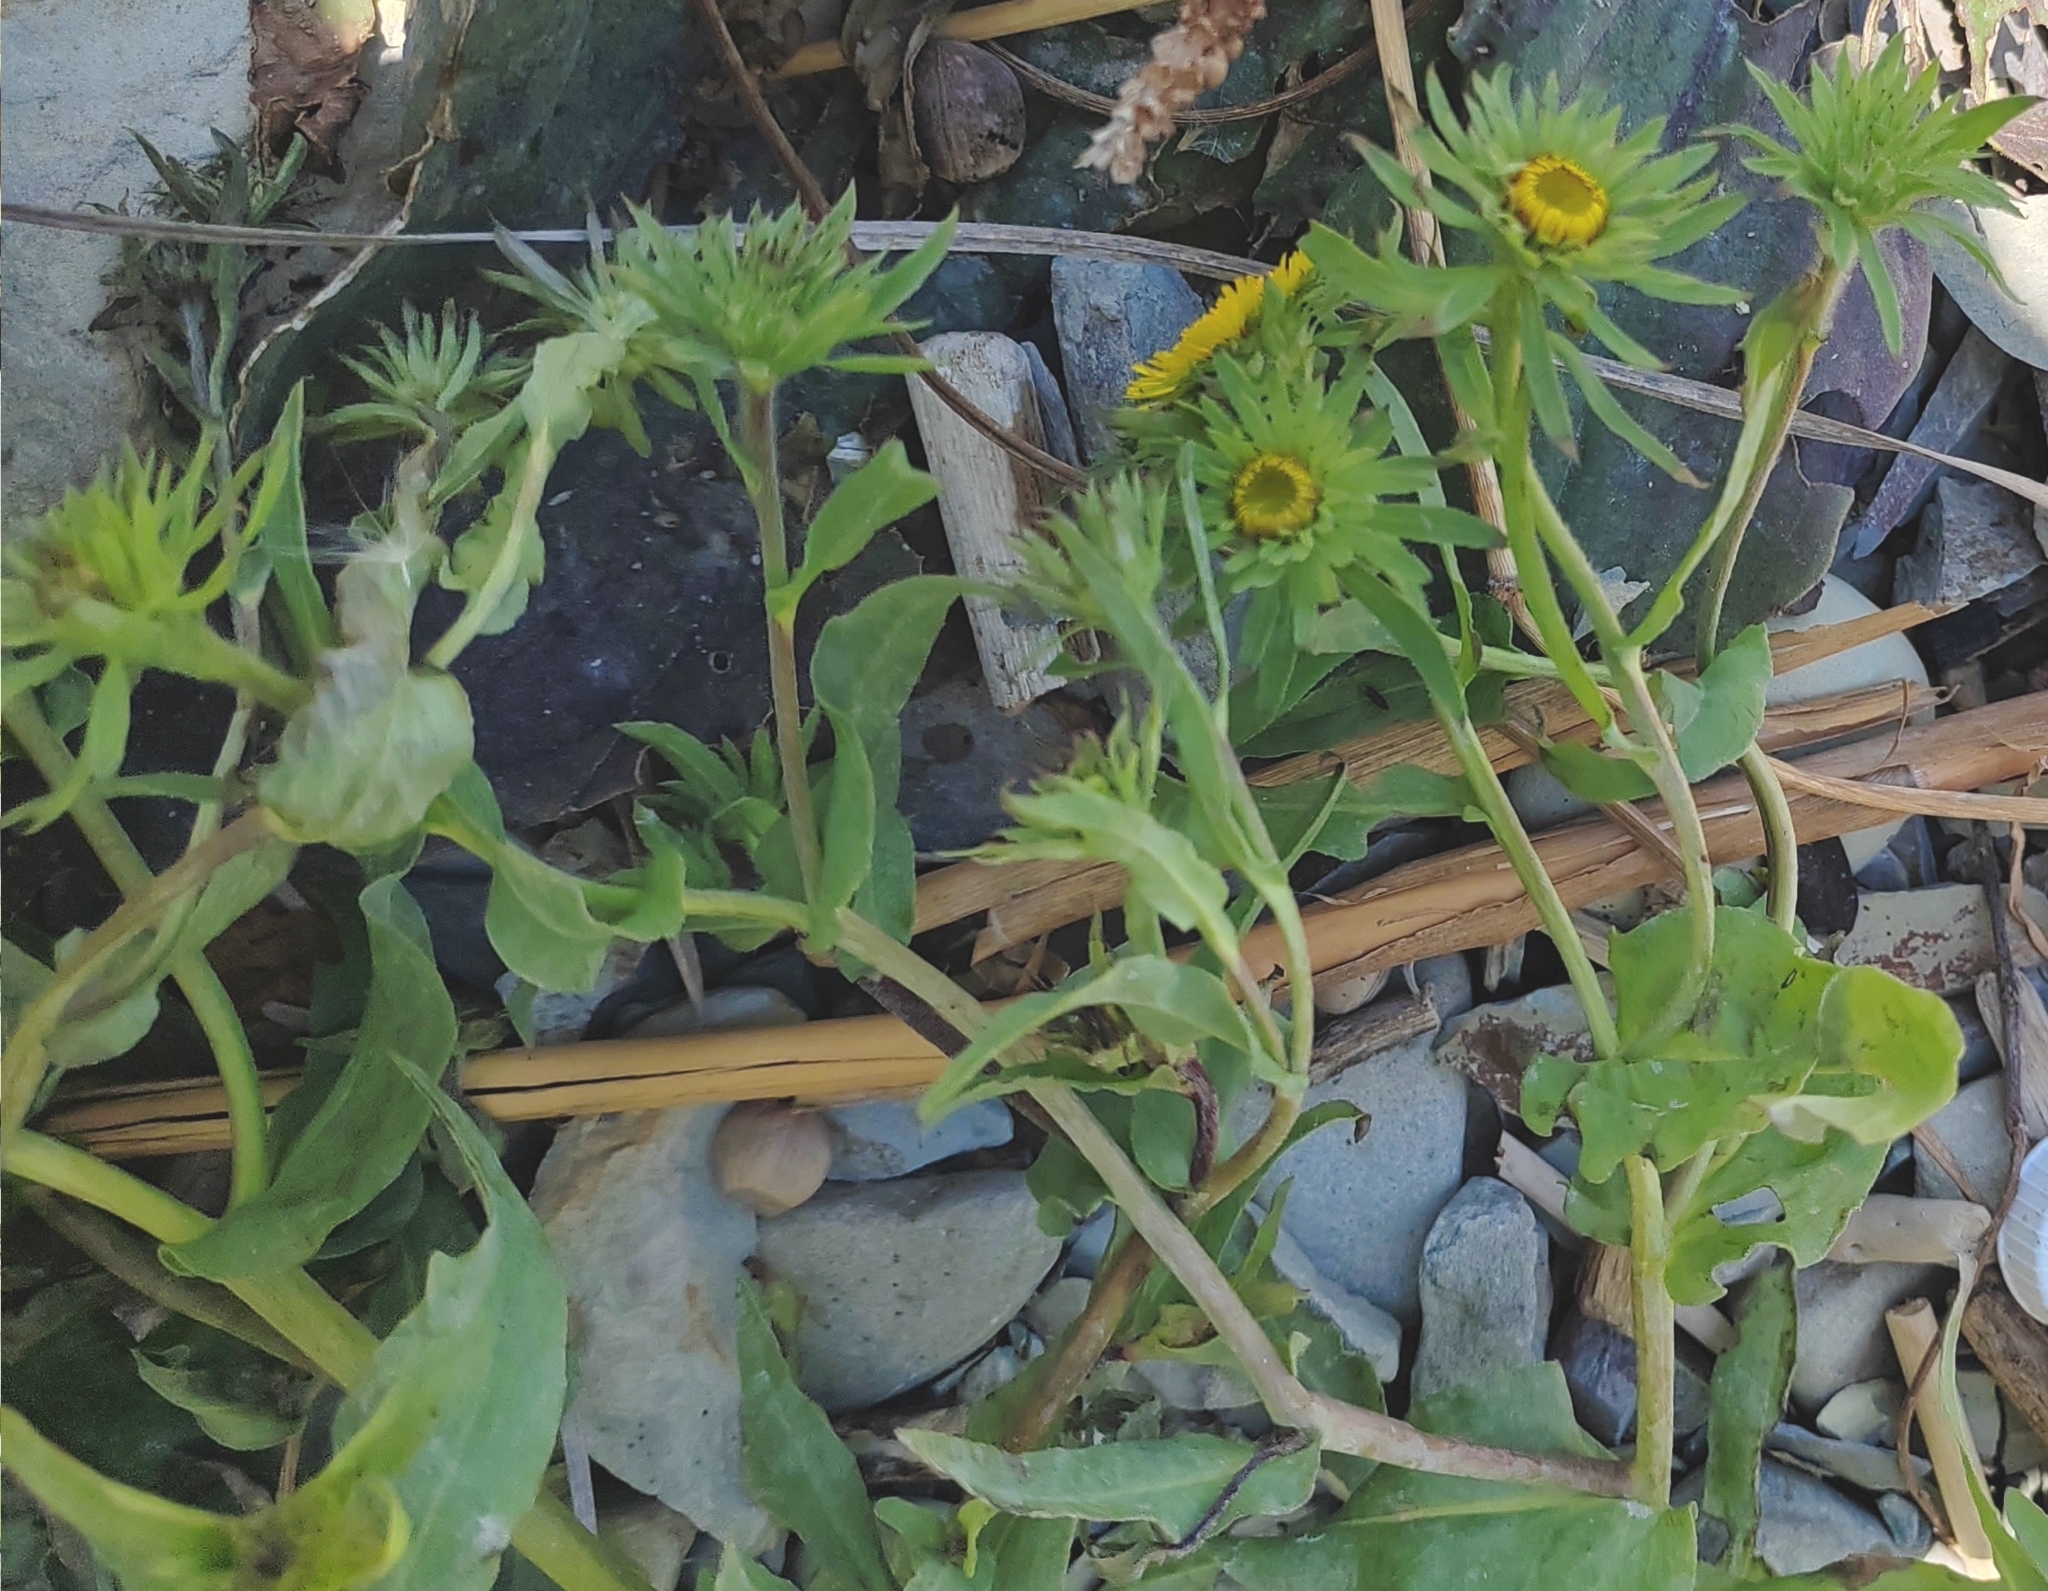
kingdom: Plantae
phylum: Tracheophyta
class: Magnoliopsida
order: Asterales
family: Asteraceae
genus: Pentanema
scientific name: Pentanema caspicum
